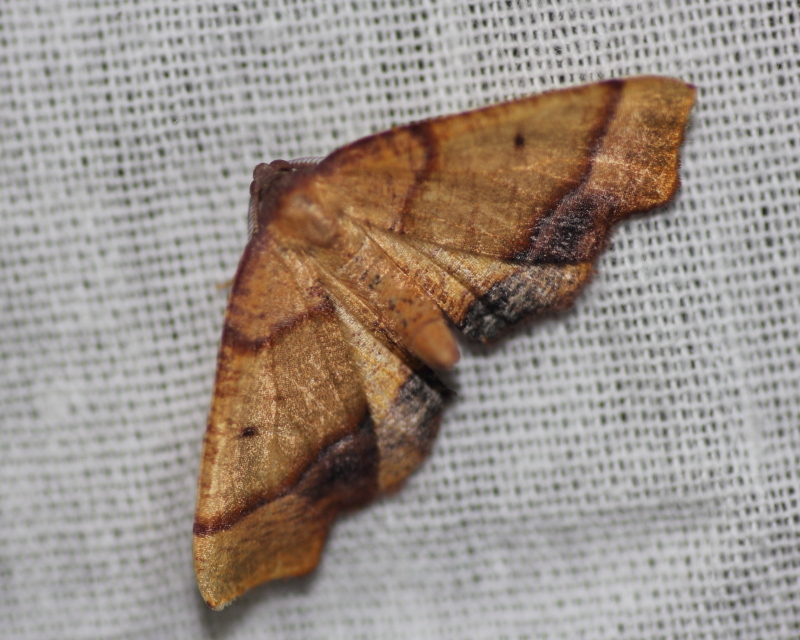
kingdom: Animalia
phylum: Arthropoda
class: Insecta
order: Lepidoptera
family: Geometridae
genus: Plagodis
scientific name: Plagodis phlogosaria
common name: Straight-lined plagodis
